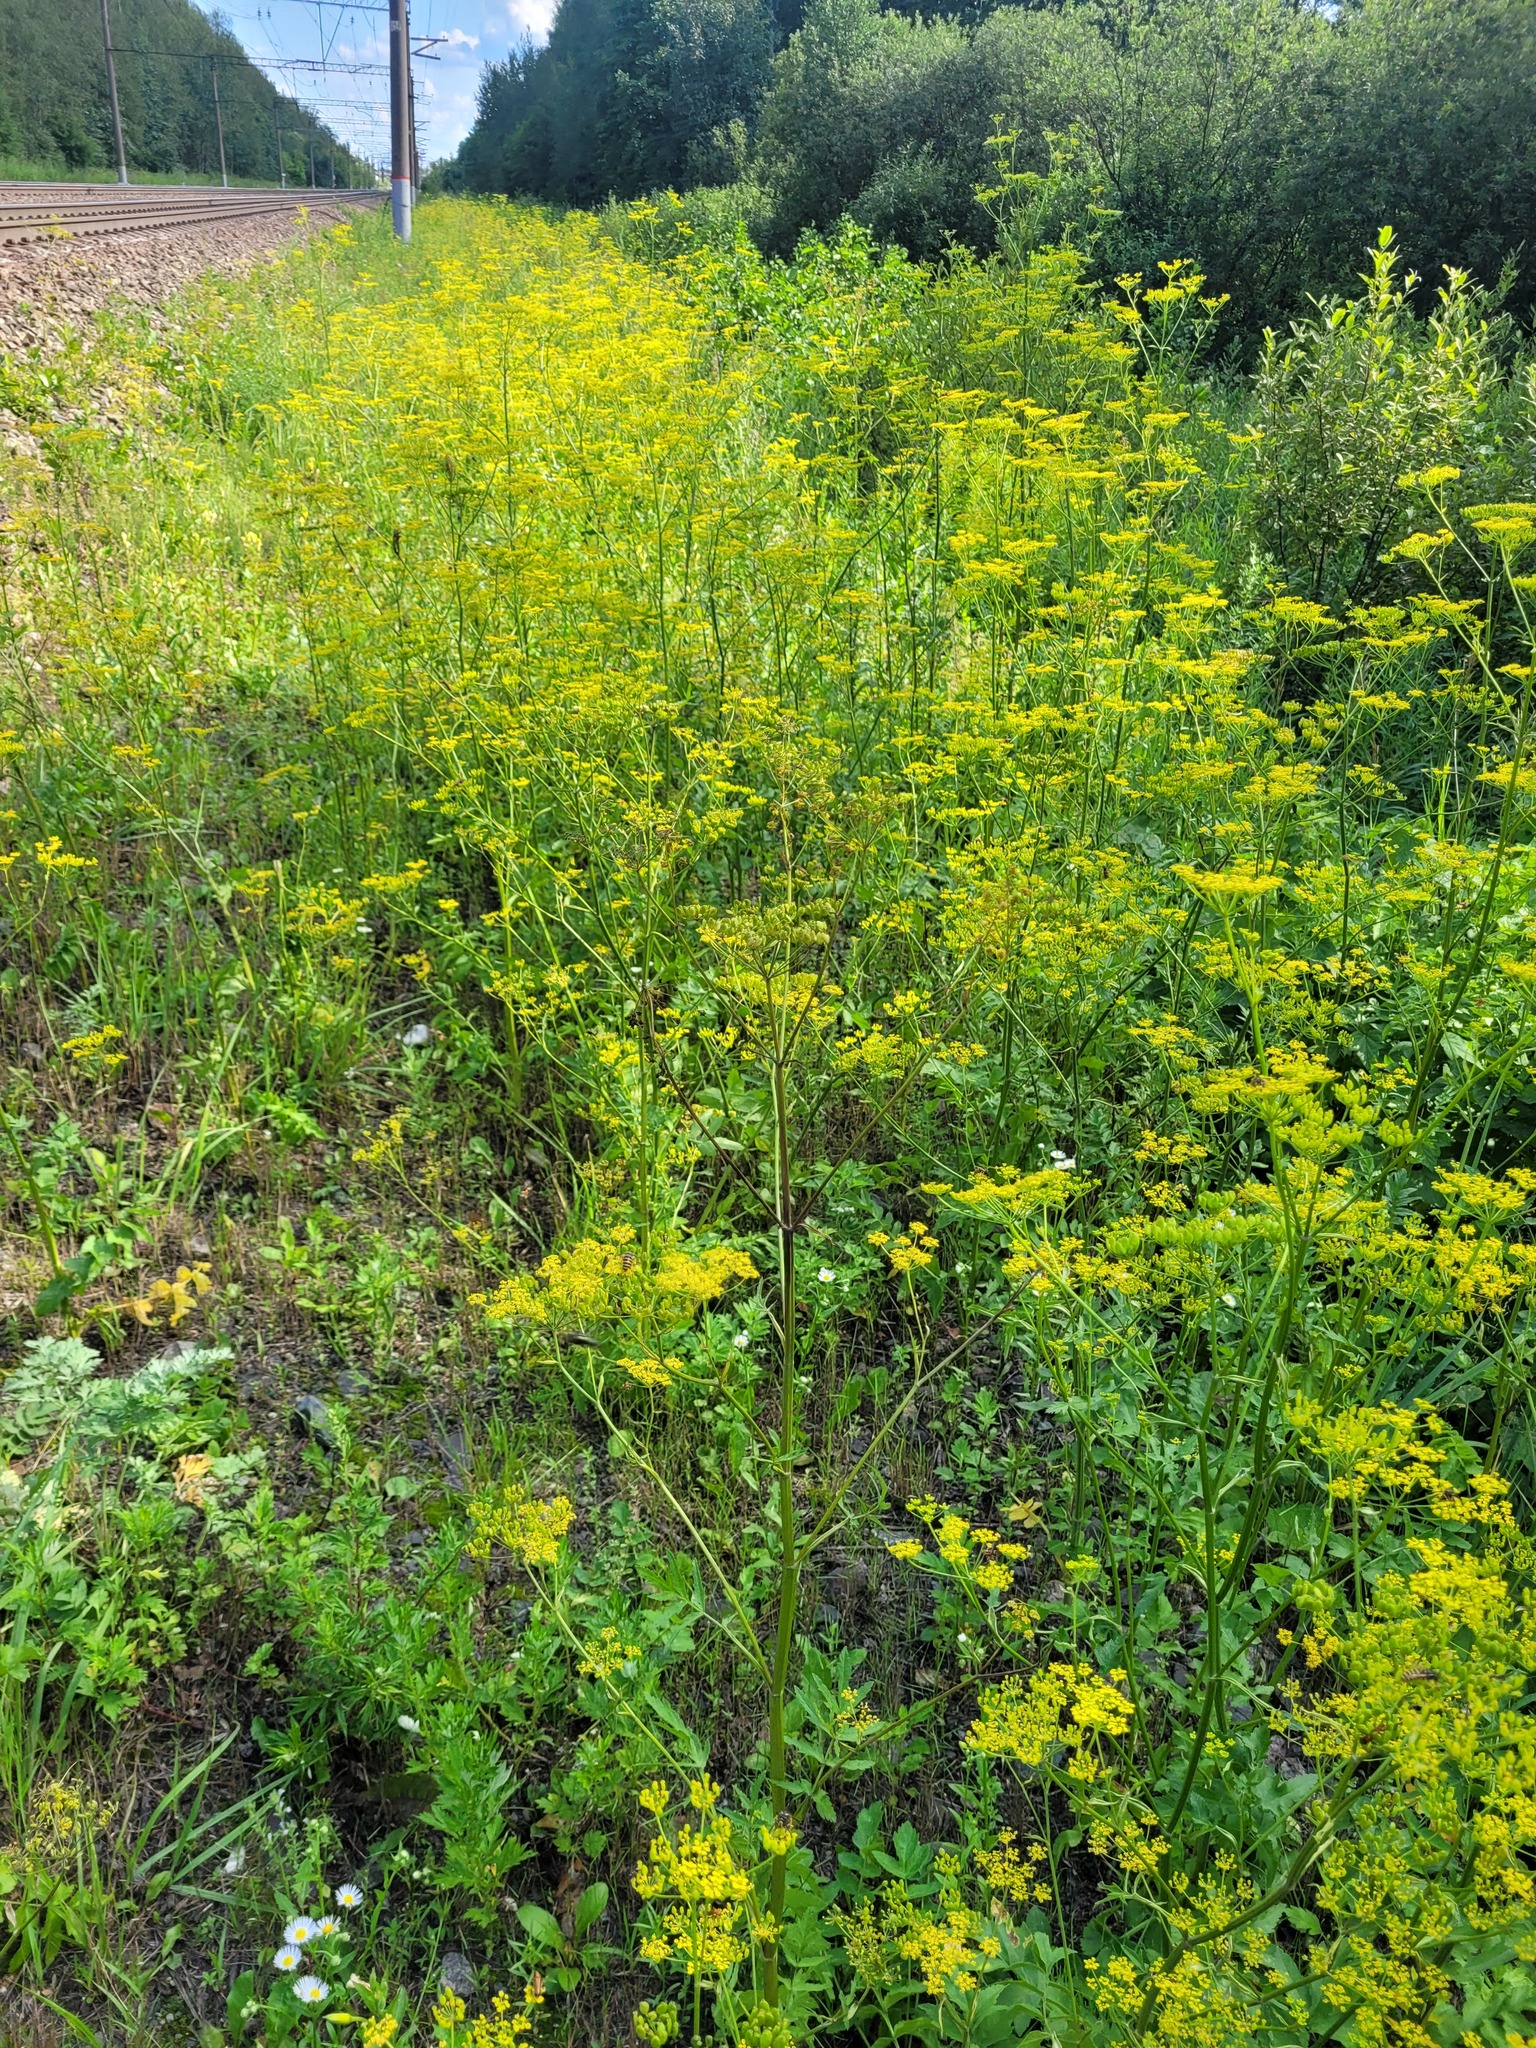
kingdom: Plantae
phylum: Tracheophyta
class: Magnoliopsida
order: Apiales
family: Apiaceae
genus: Pastinaca
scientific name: Pastinaca sativa
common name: Wild parsnip
